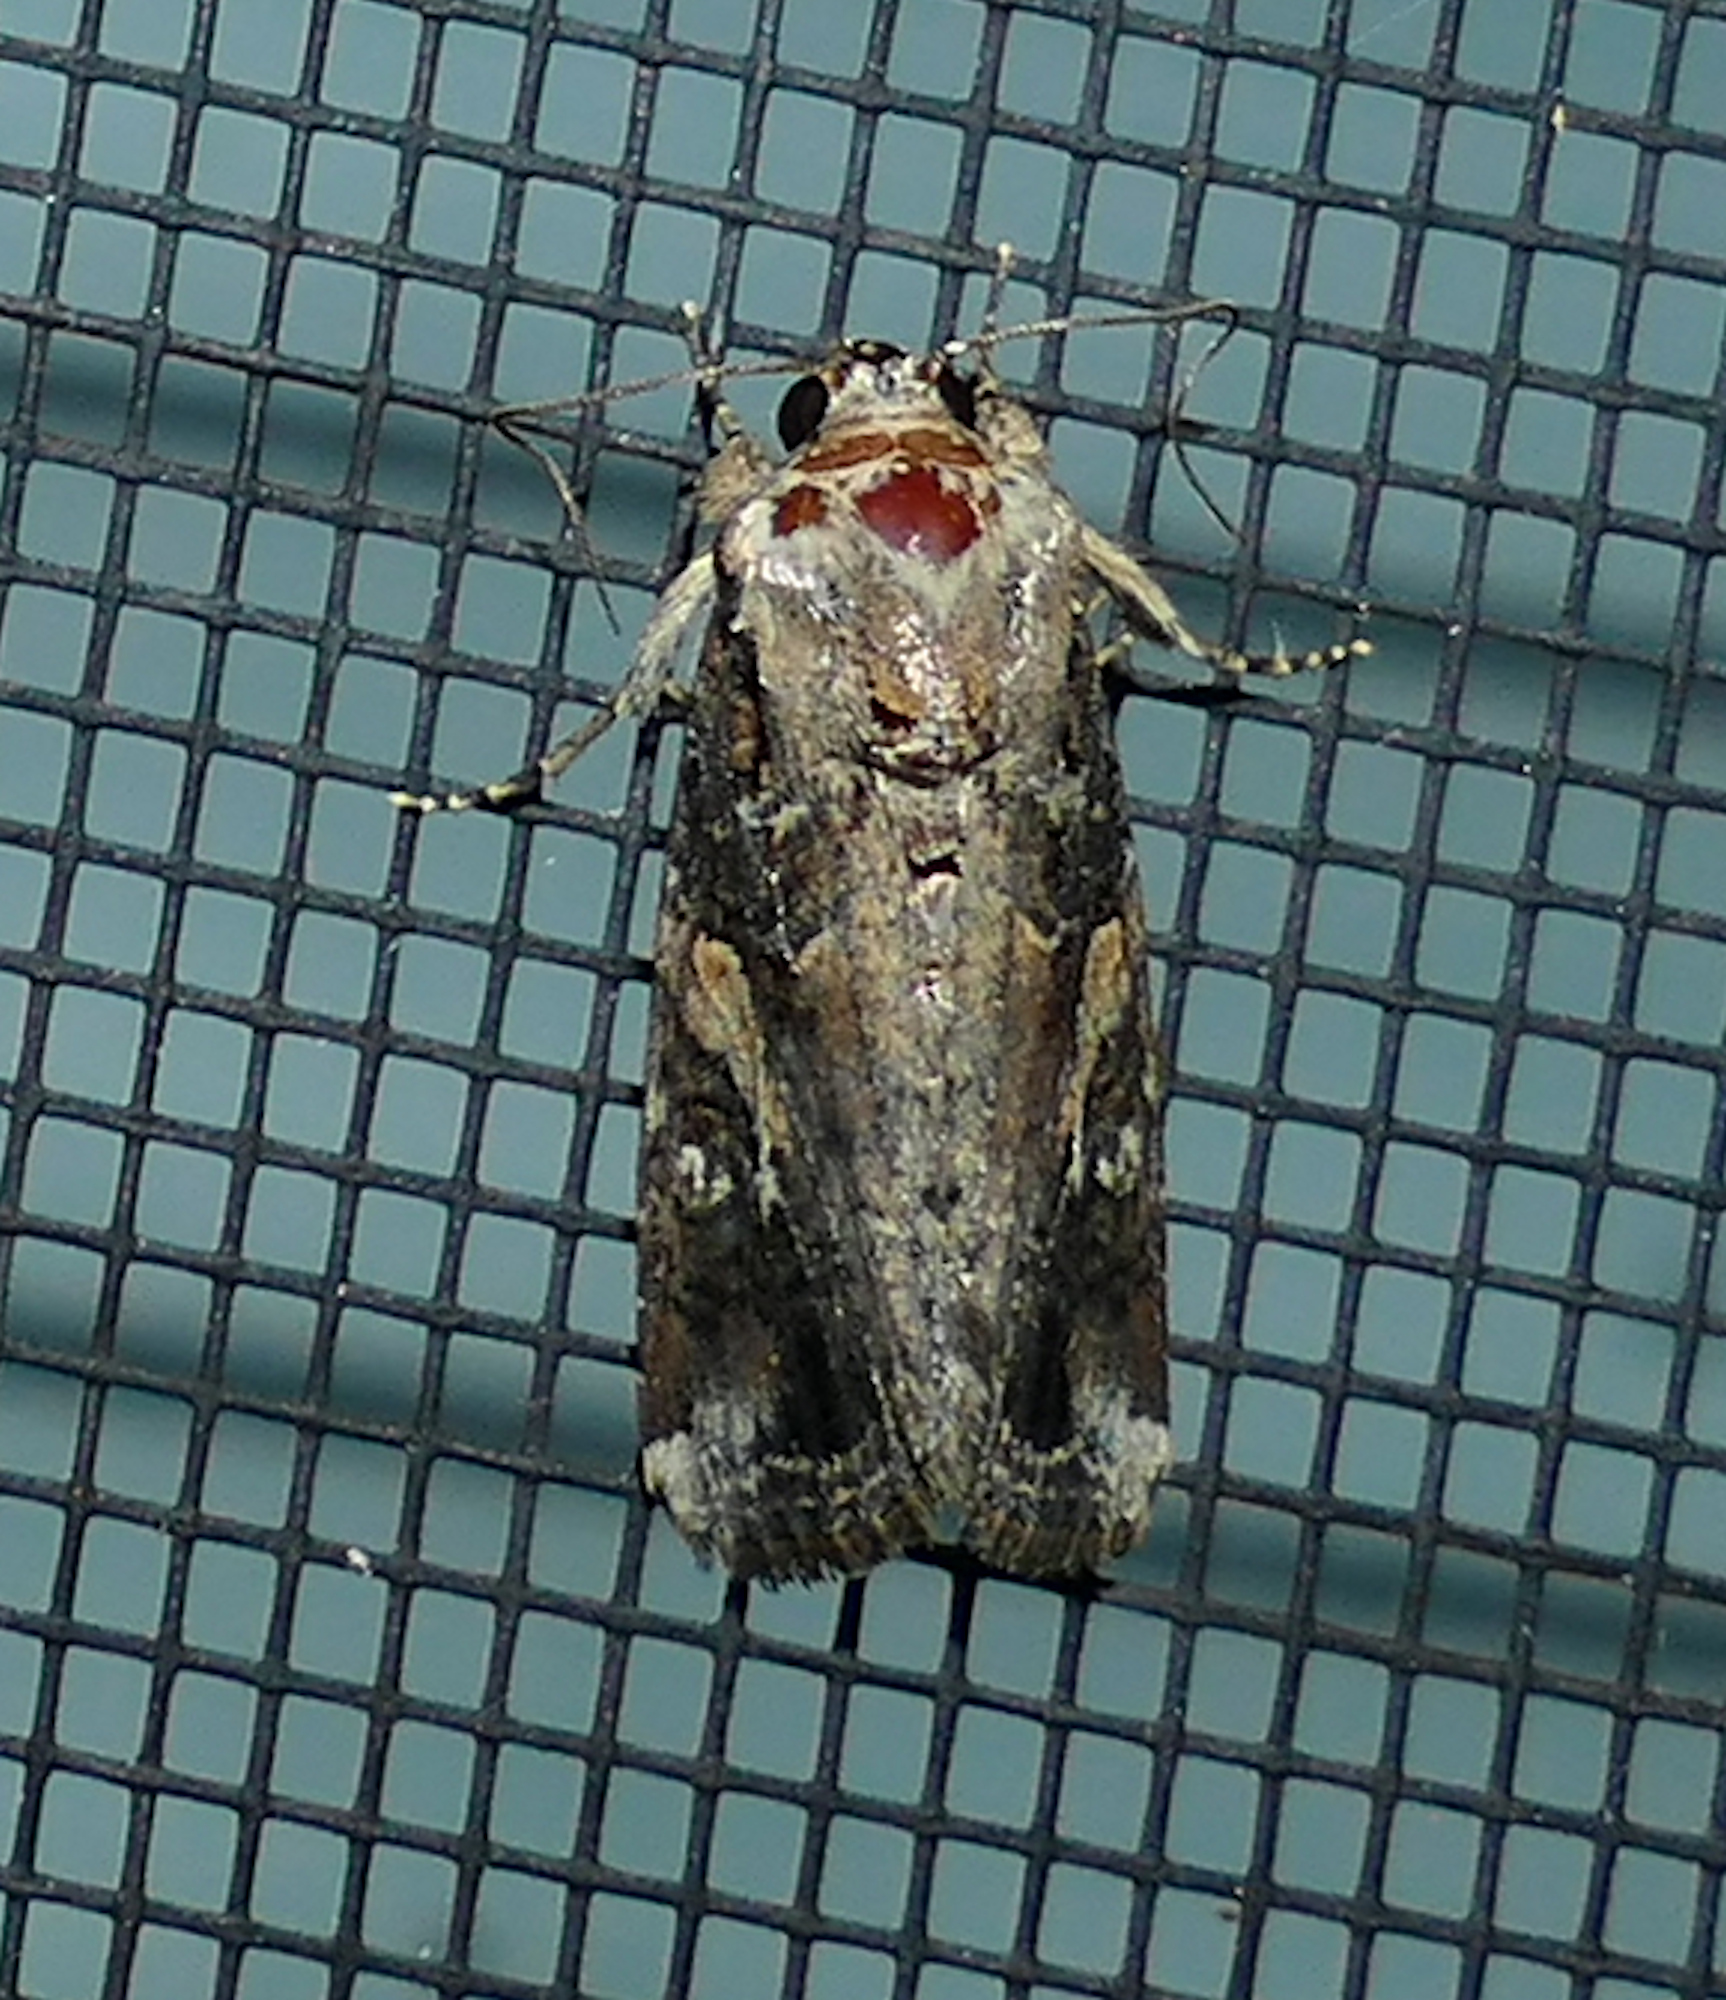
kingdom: Animalia
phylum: Arthropoda
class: Insecta
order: Lepidoptera
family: Noctuidae
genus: Spodoptera
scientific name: Spodoptera frugiperda
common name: Fall armyworm
